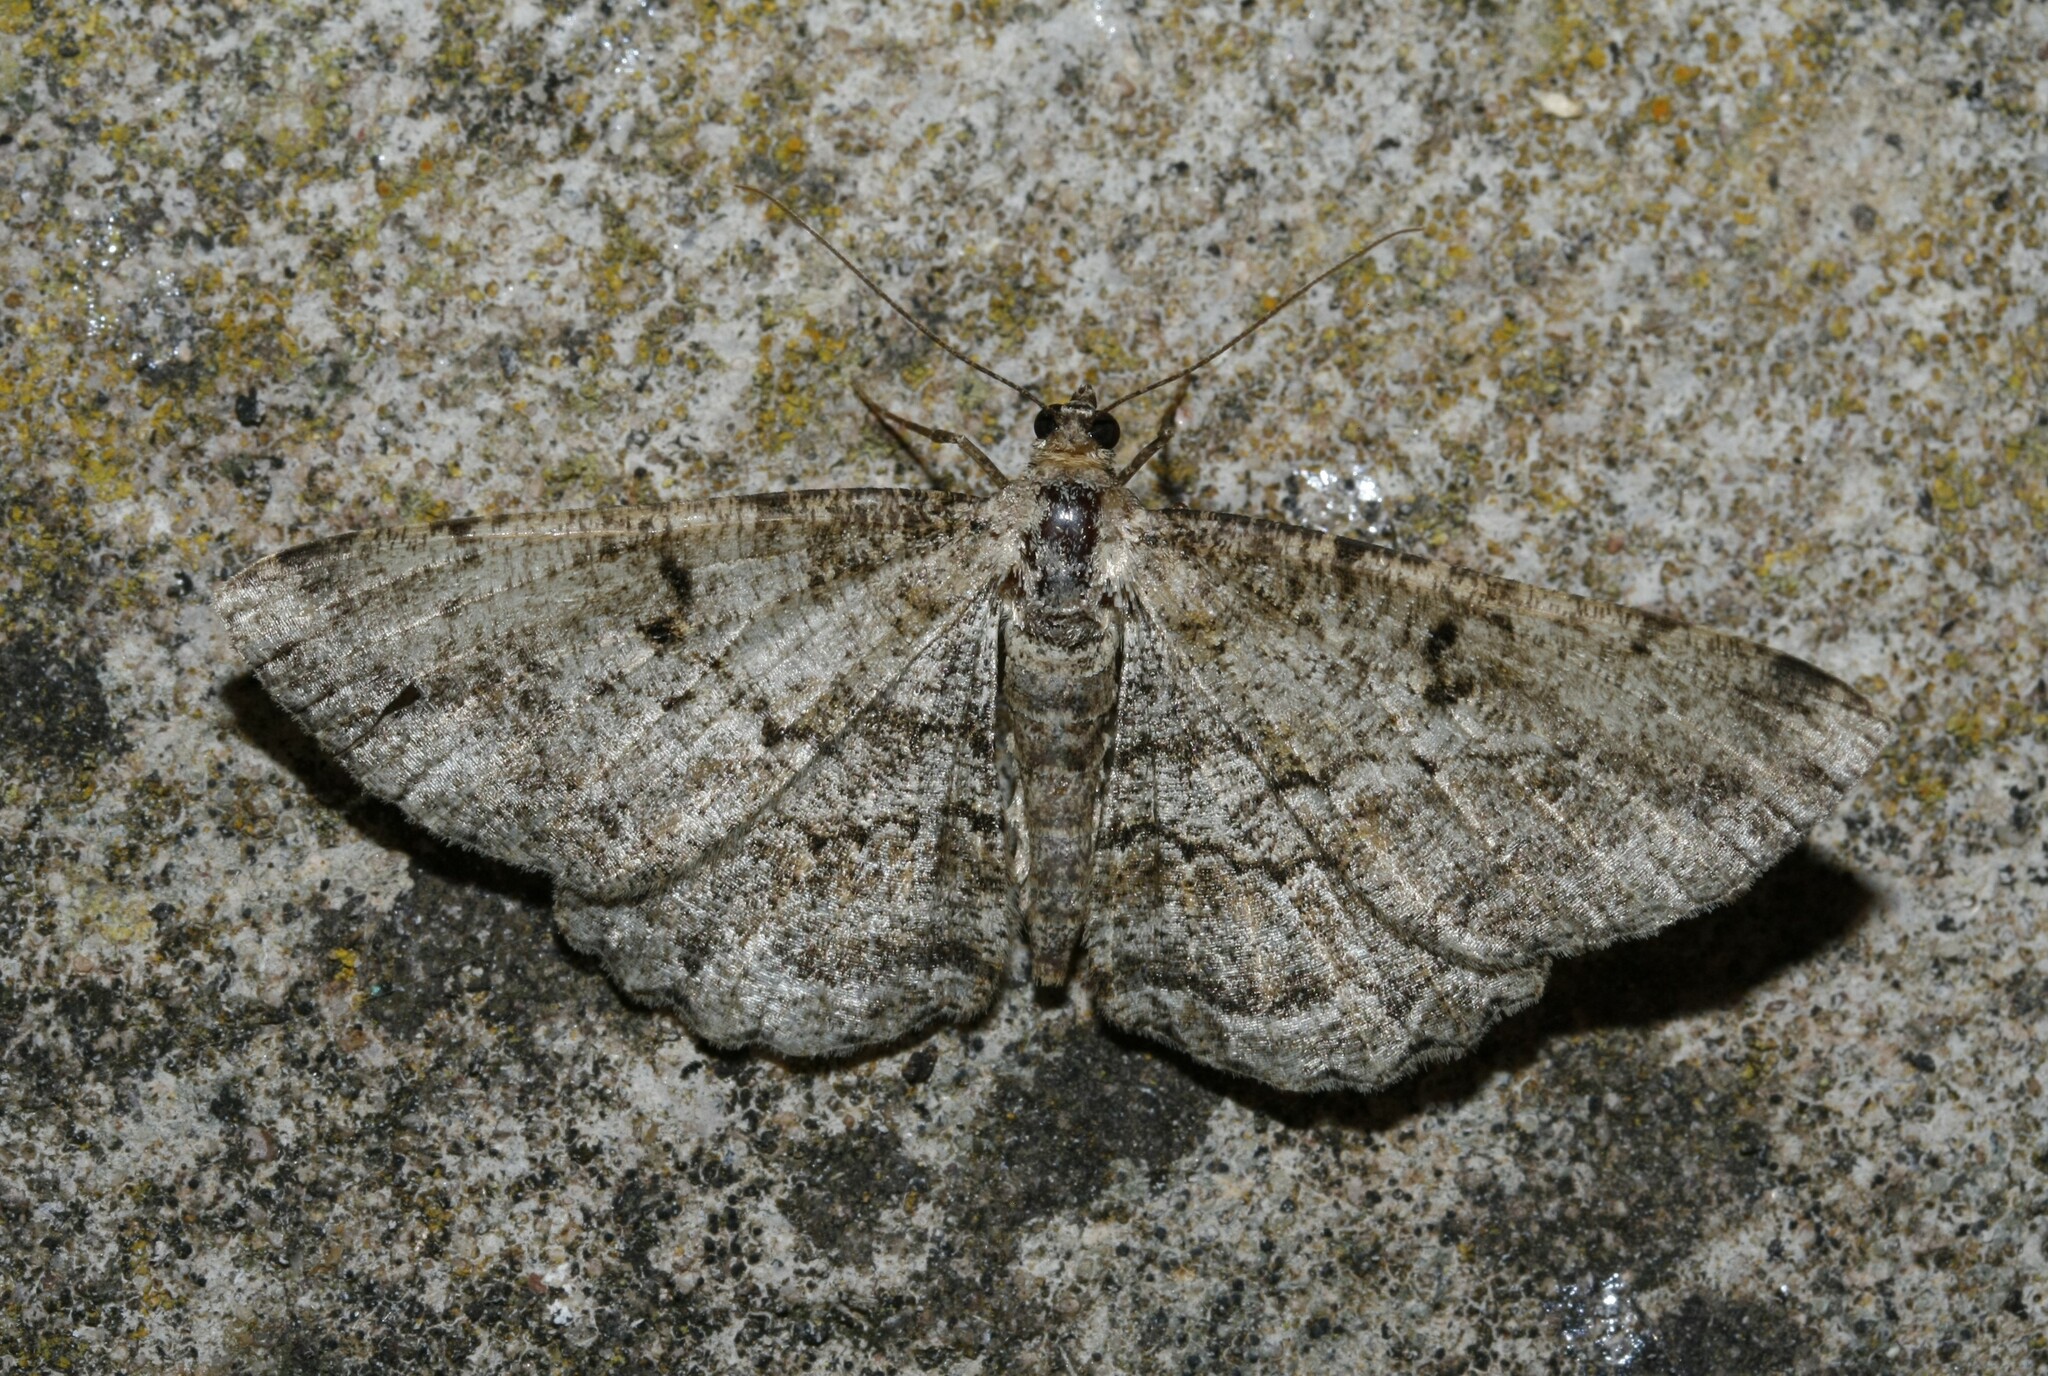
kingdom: Animalia
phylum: Arthropoda
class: Insecta
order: Lepidoptera
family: Geometridae
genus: Peribatodes
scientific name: Peribatodes rhomboidaria
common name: Willow beauty
